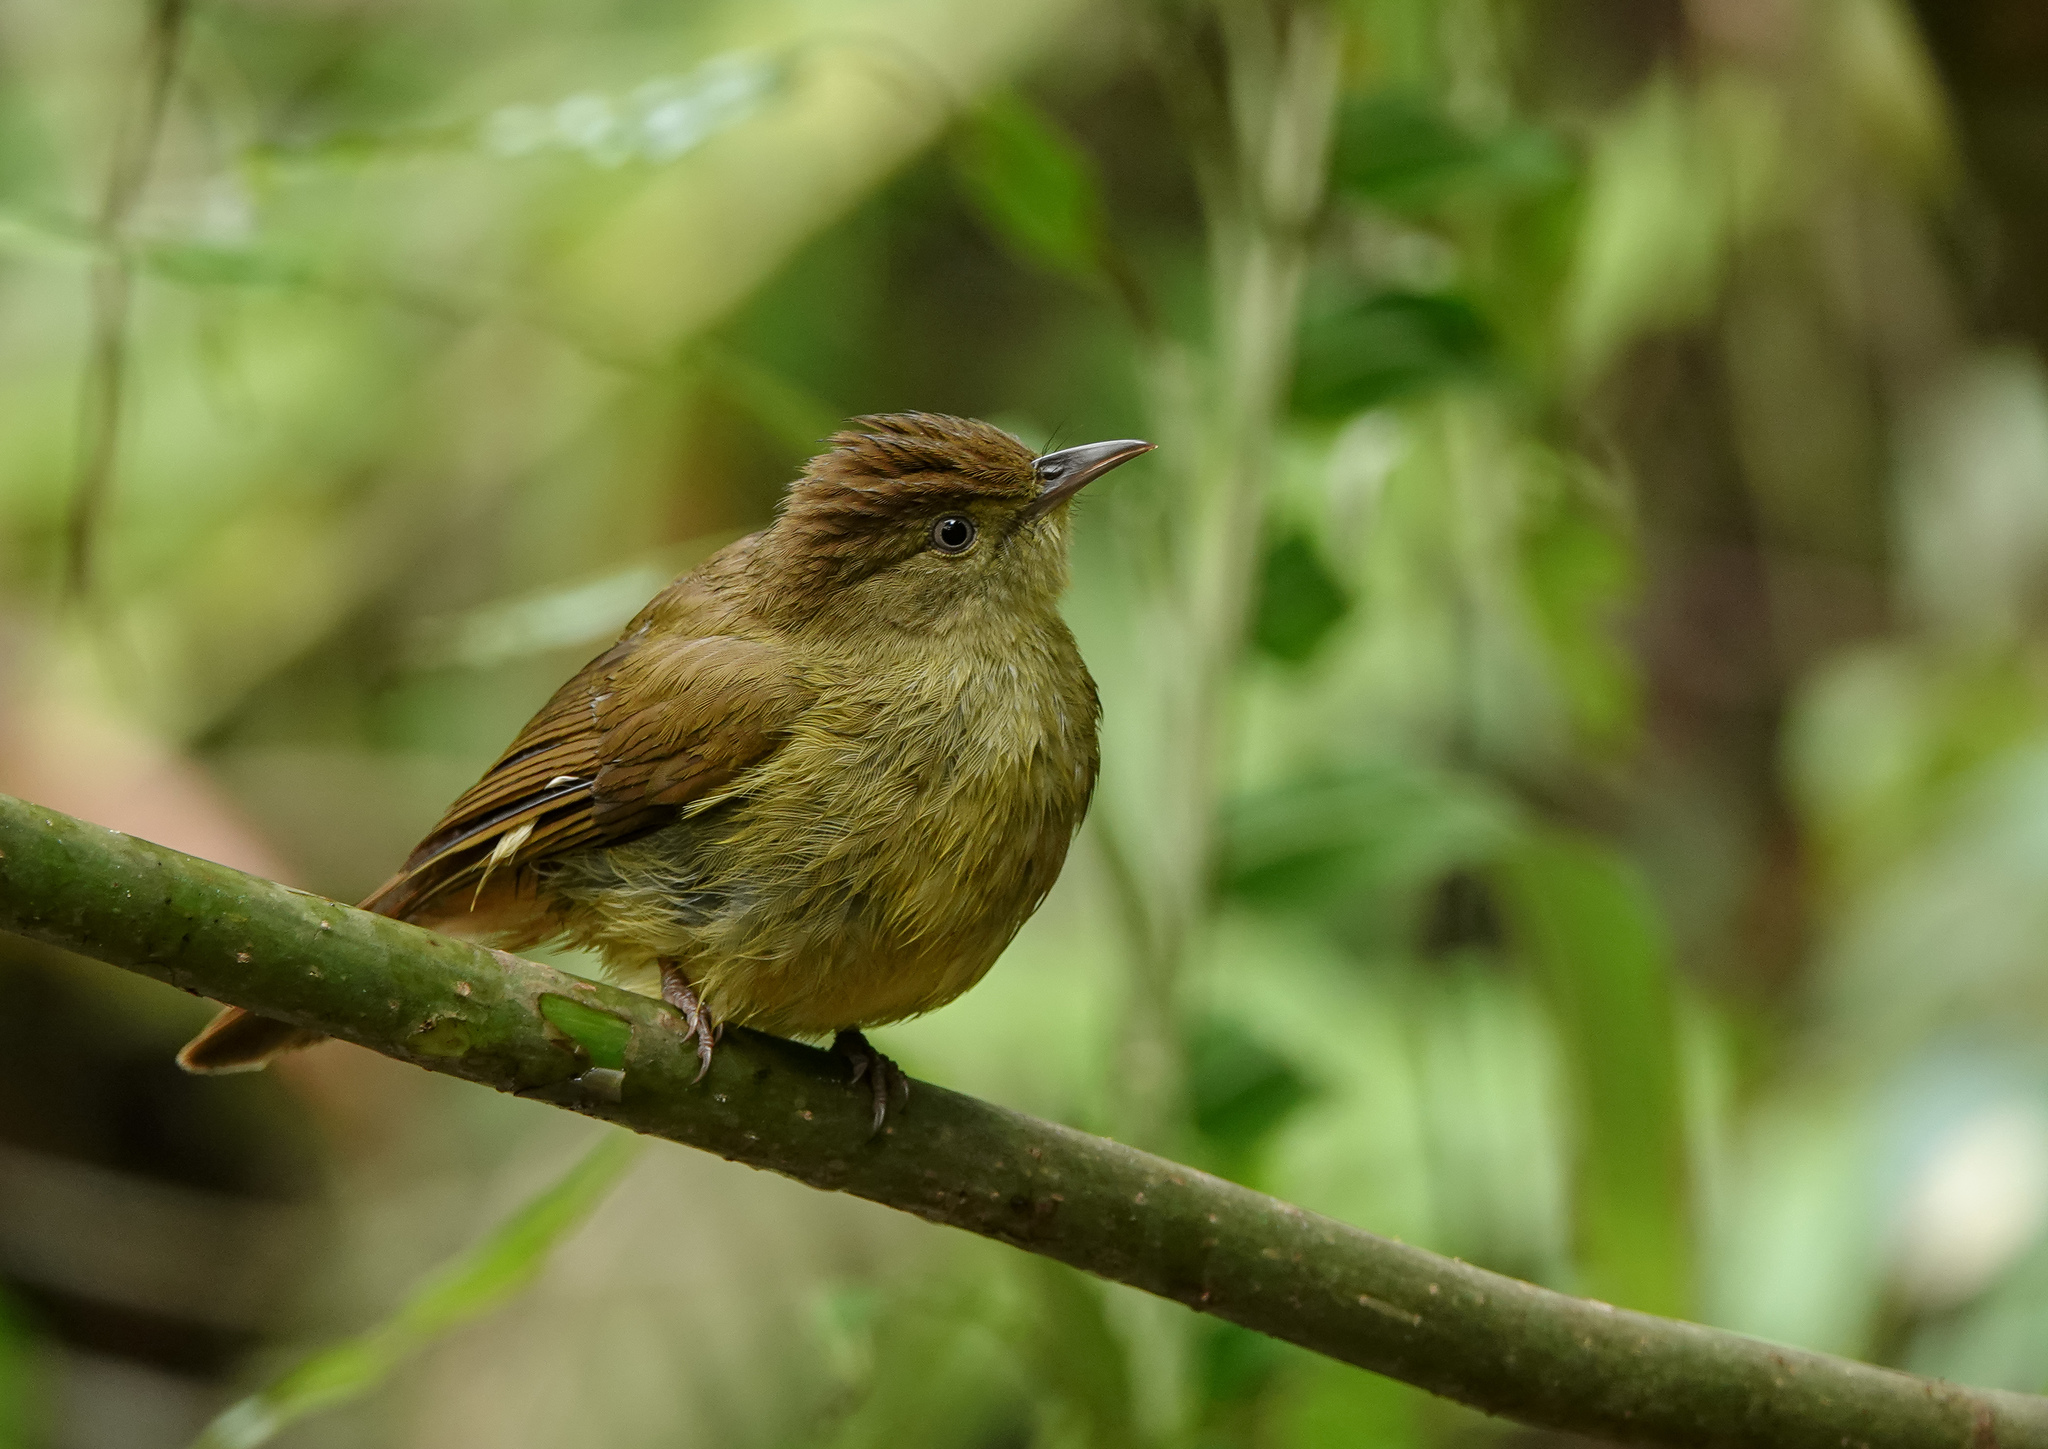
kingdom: Animalia
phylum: Chordata
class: Aves
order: Passeriformes
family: Pycnonotidae
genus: Iole
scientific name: Iole virescens
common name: Olive bulbul
